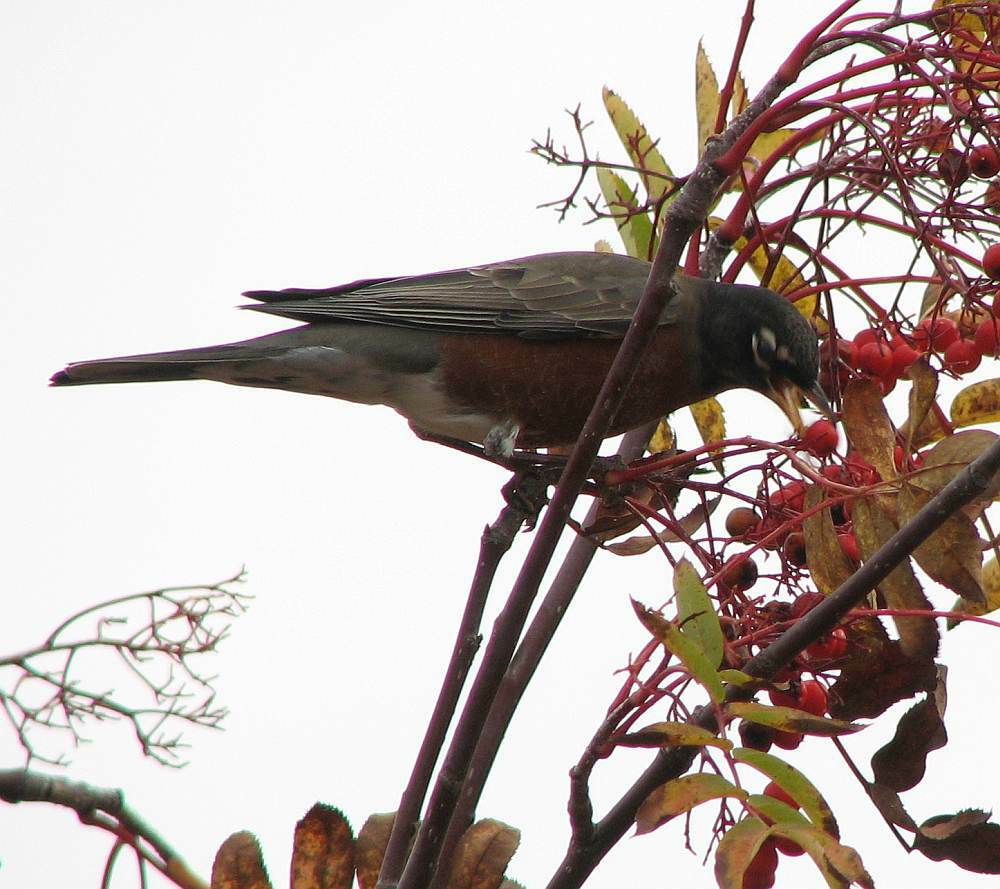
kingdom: Animalia
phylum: Chordata
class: Aves
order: Passeriformes
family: Turdidae
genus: Turdus
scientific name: Turdus migratorius
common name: American robin
